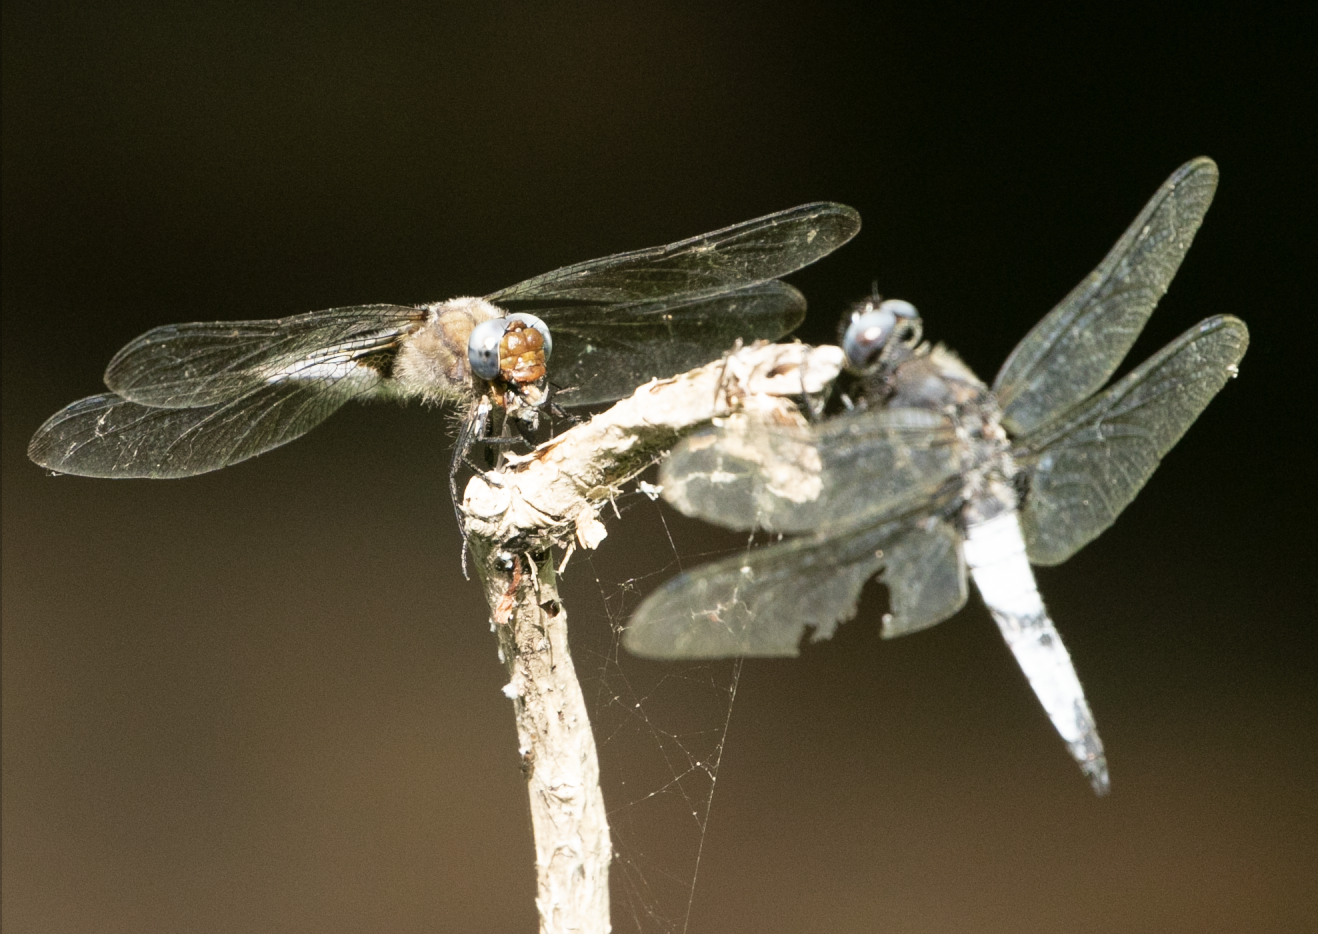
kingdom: Animalia
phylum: Arthropoda
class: Insecta
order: Odonata
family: Libellulidae
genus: Libellula
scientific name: Libellula fulva
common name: Blue chaser
